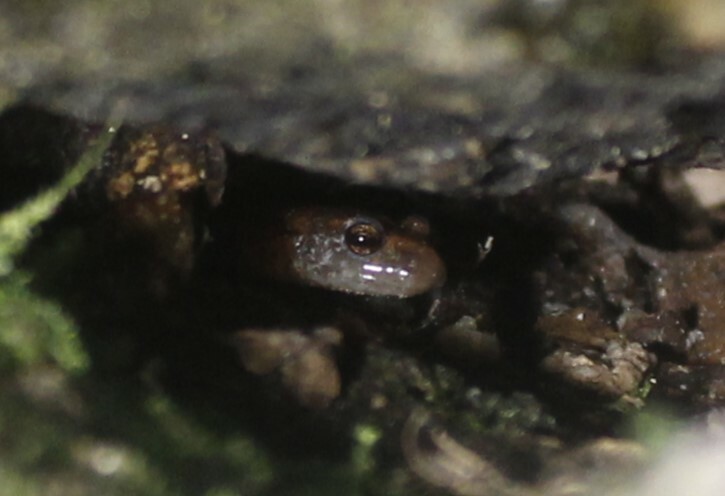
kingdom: Animalia
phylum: Chordata
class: Amphibia
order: Caudata
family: Plethodontidae
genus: Plethodon
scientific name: Plethodon cinereus
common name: Redback salamander
